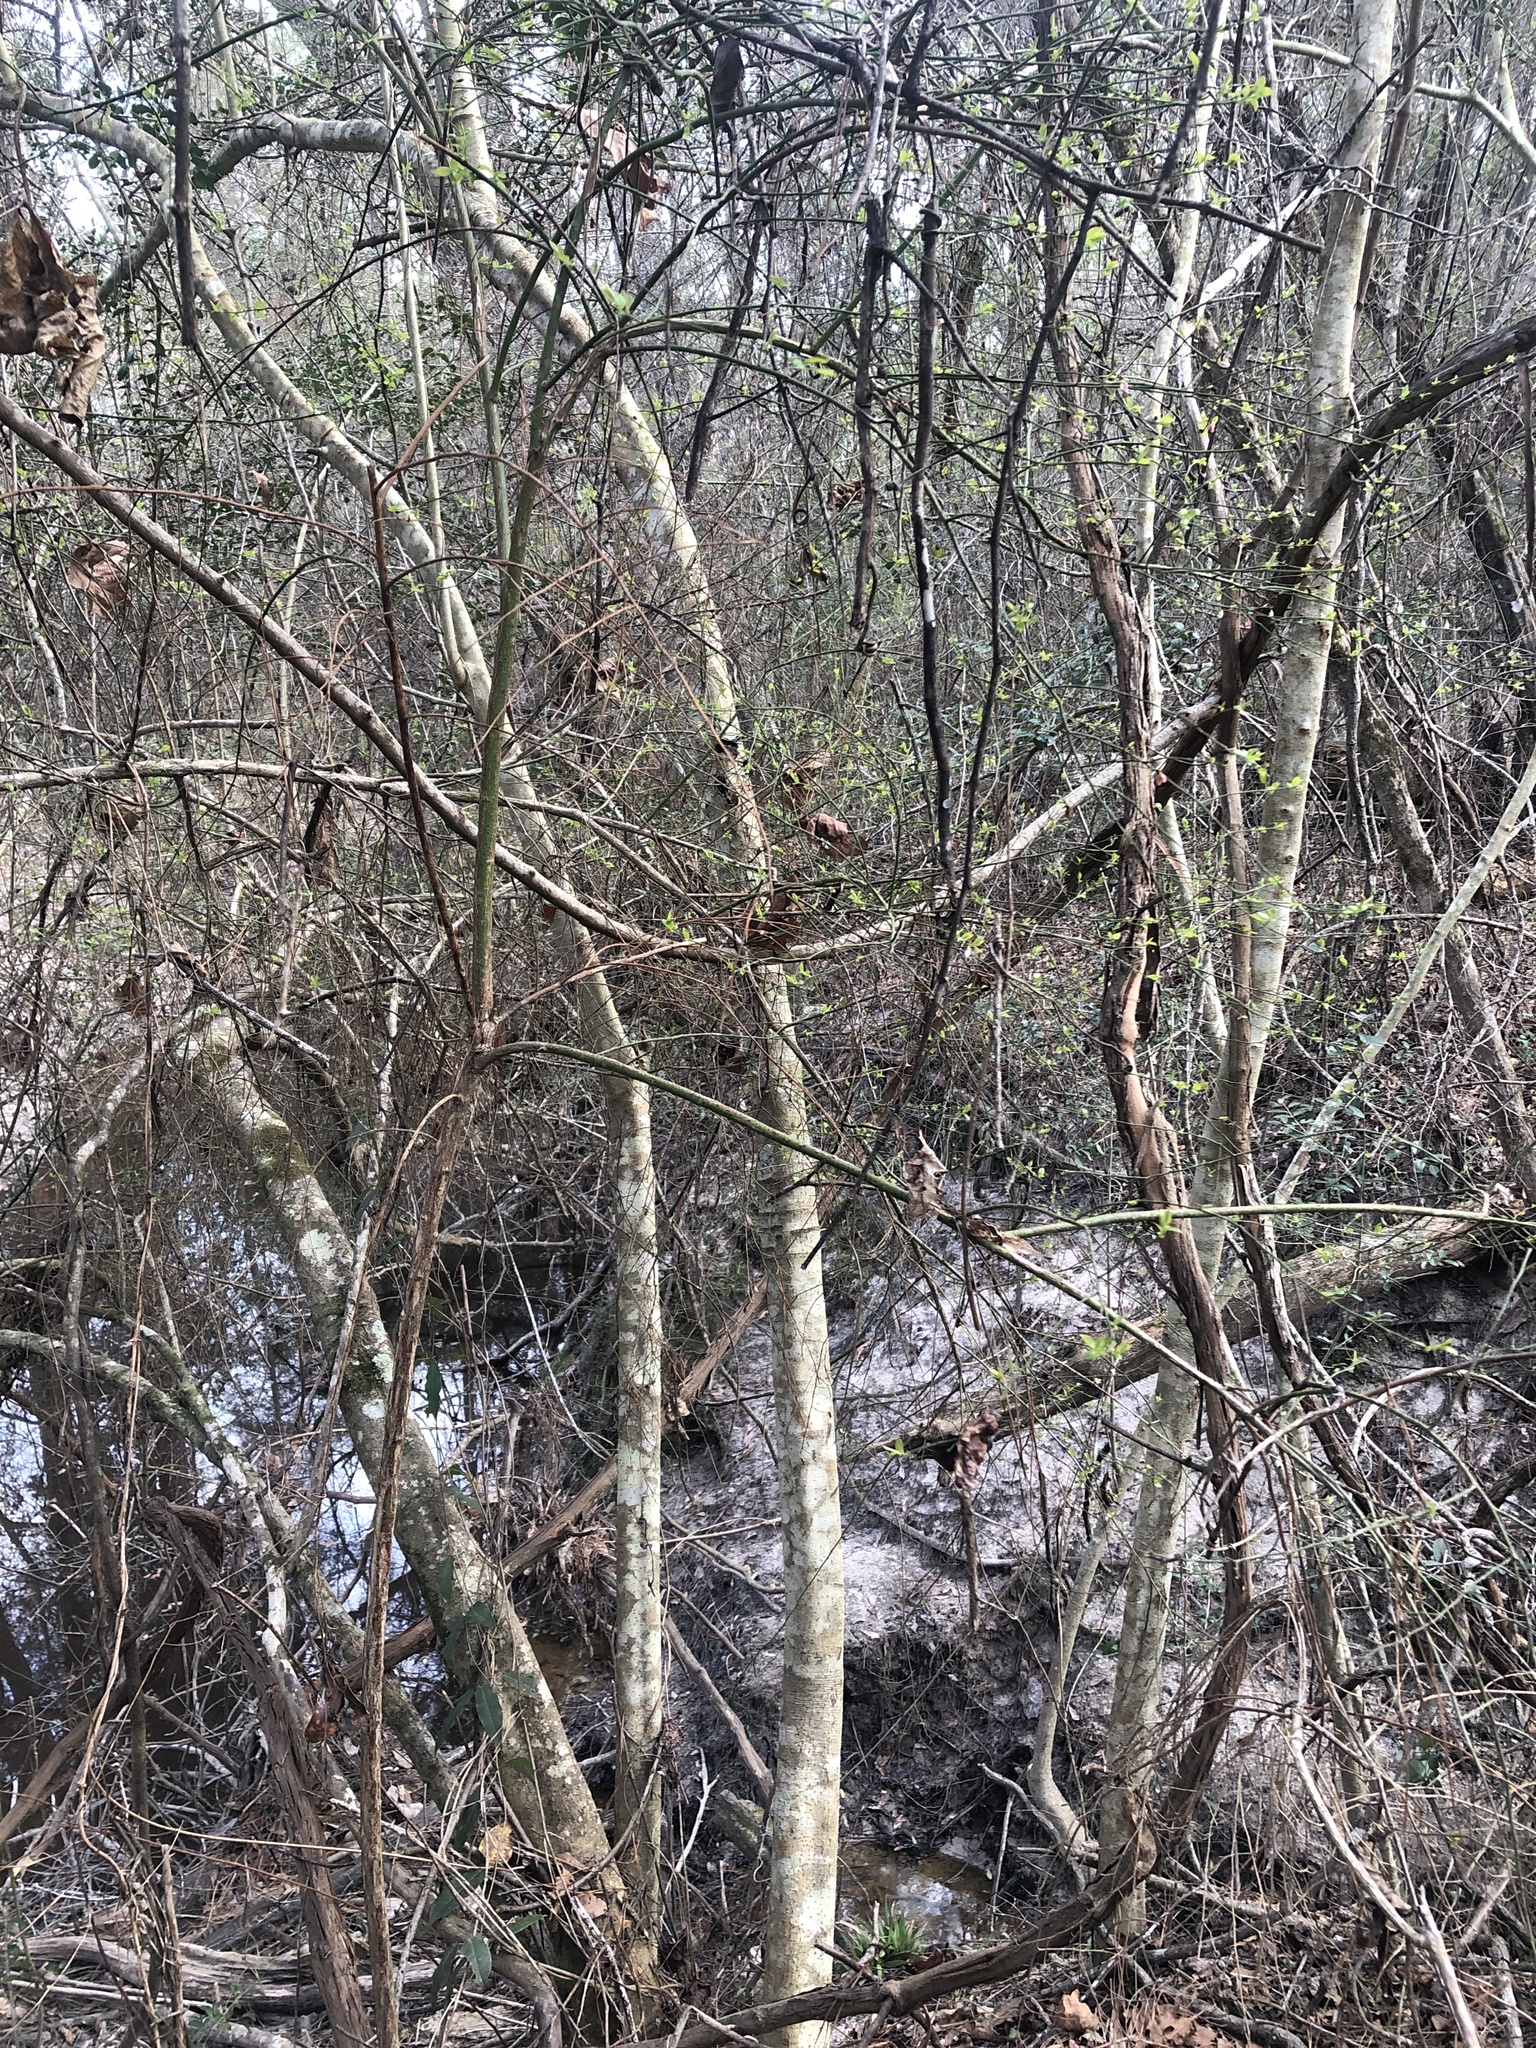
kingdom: Plantae
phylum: Tracheophyta
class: Magnoliopsida
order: Ericales
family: Ericaceae
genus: Vaccinium
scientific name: Vaccinium corymbosum
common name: Blueberry
